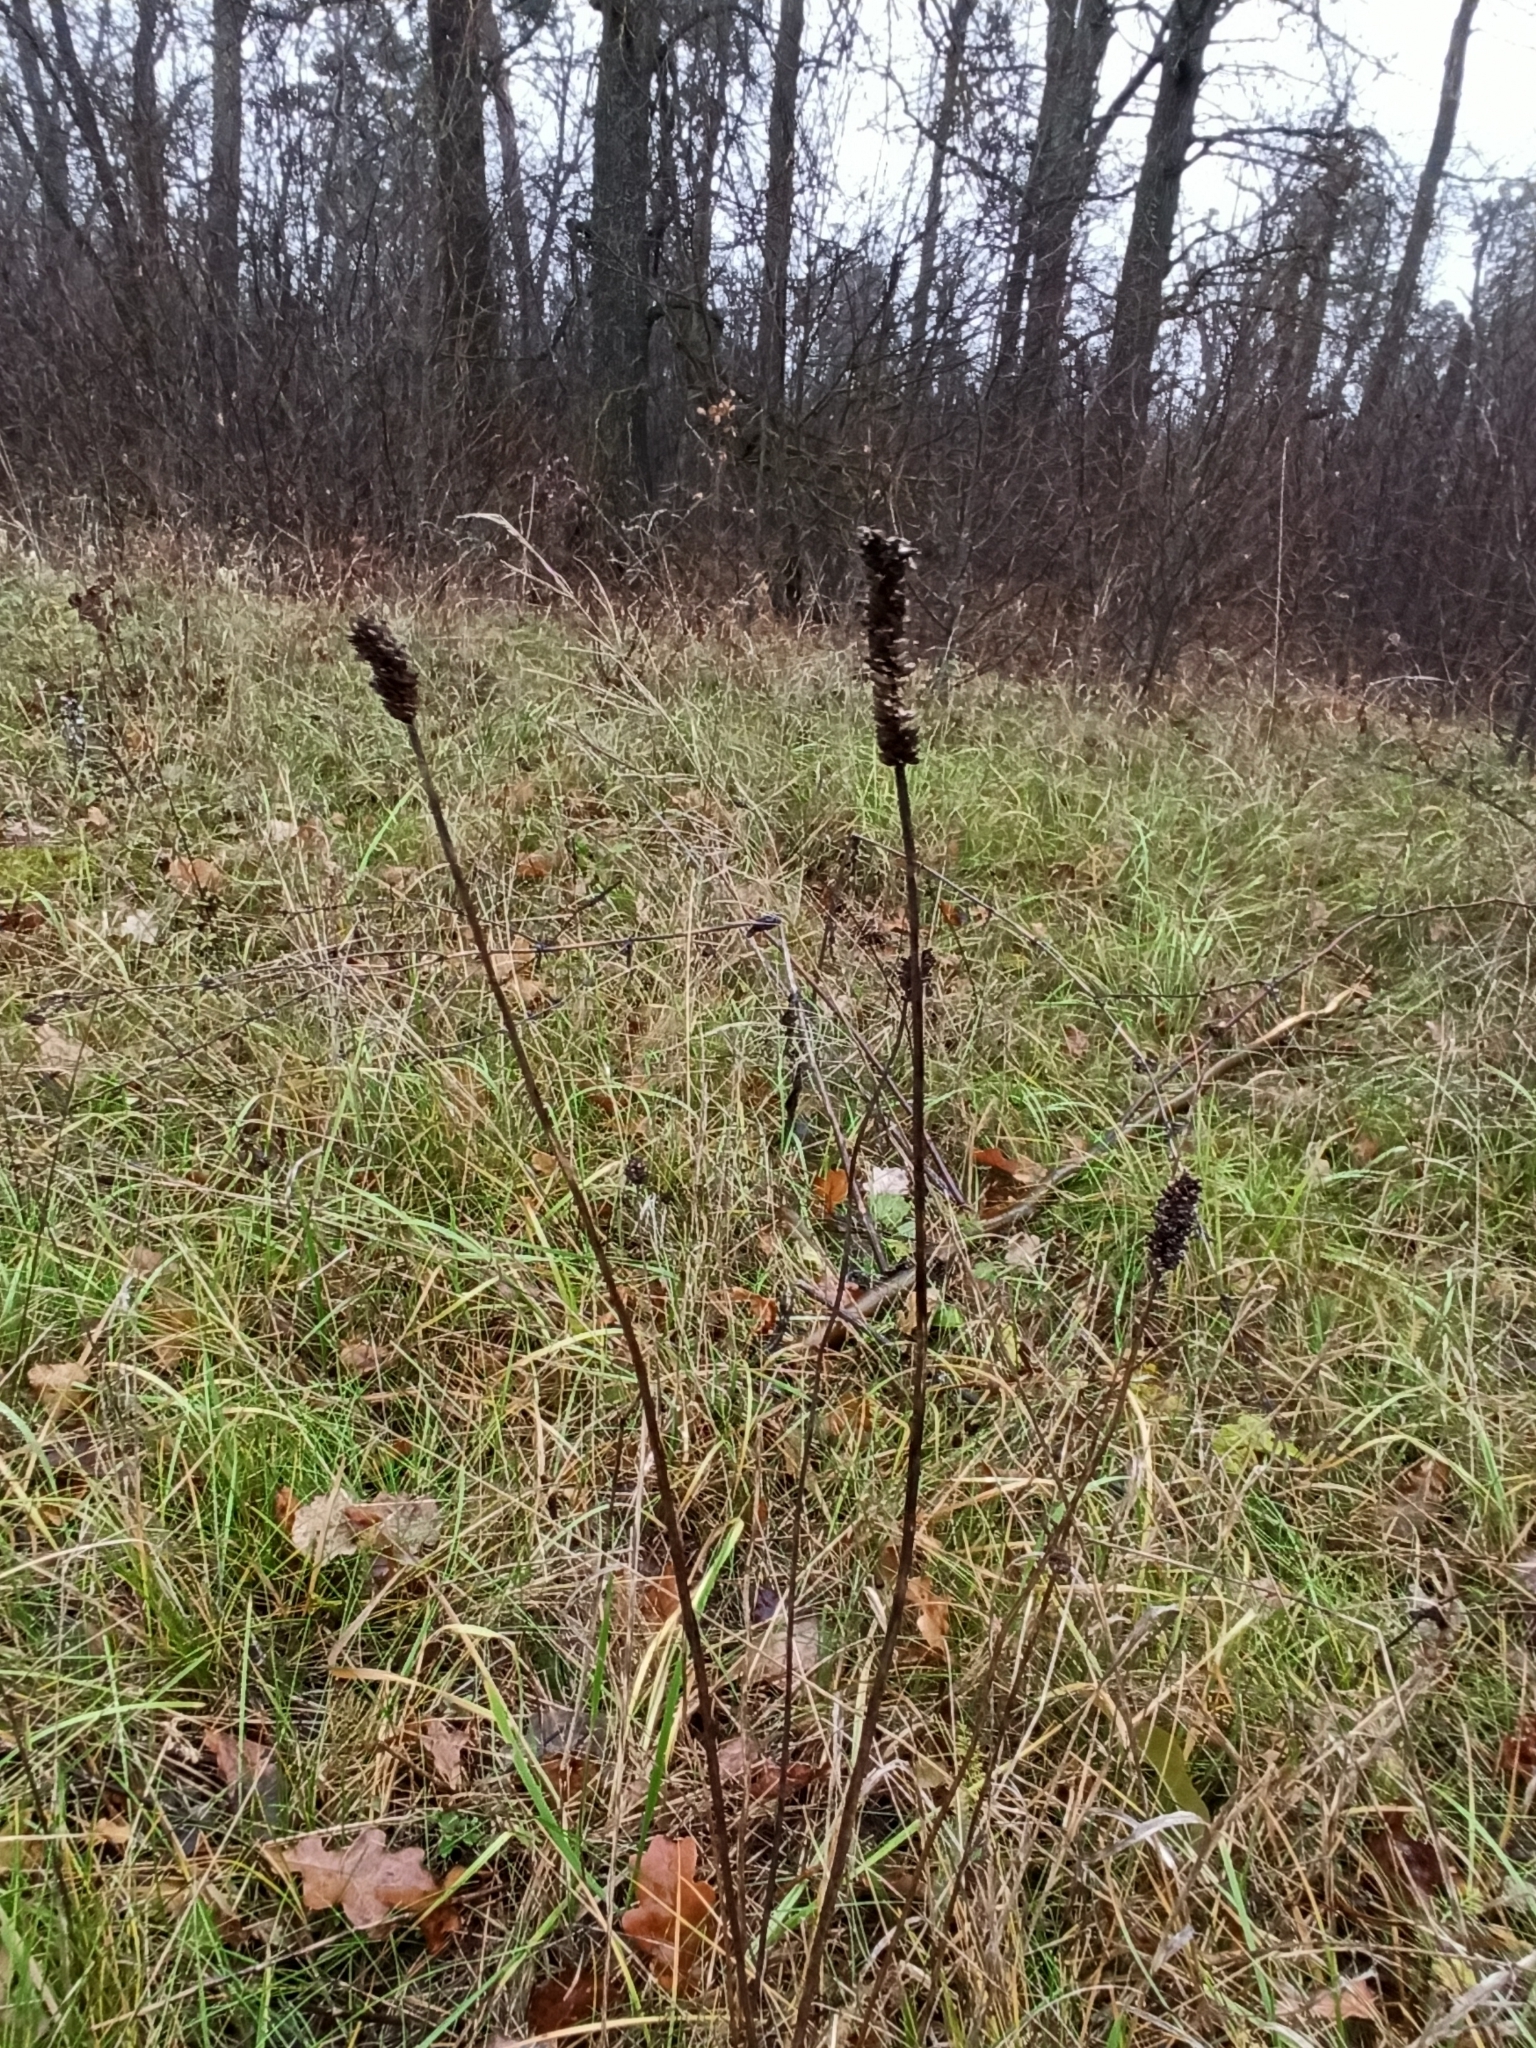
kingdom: Plantae
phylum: Tracheophyta
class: Magnoliopsida
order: Lamiales
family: Plantaginaceae
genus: Plantago
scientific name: Plantago lanceolata
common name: Ribwort plantain
